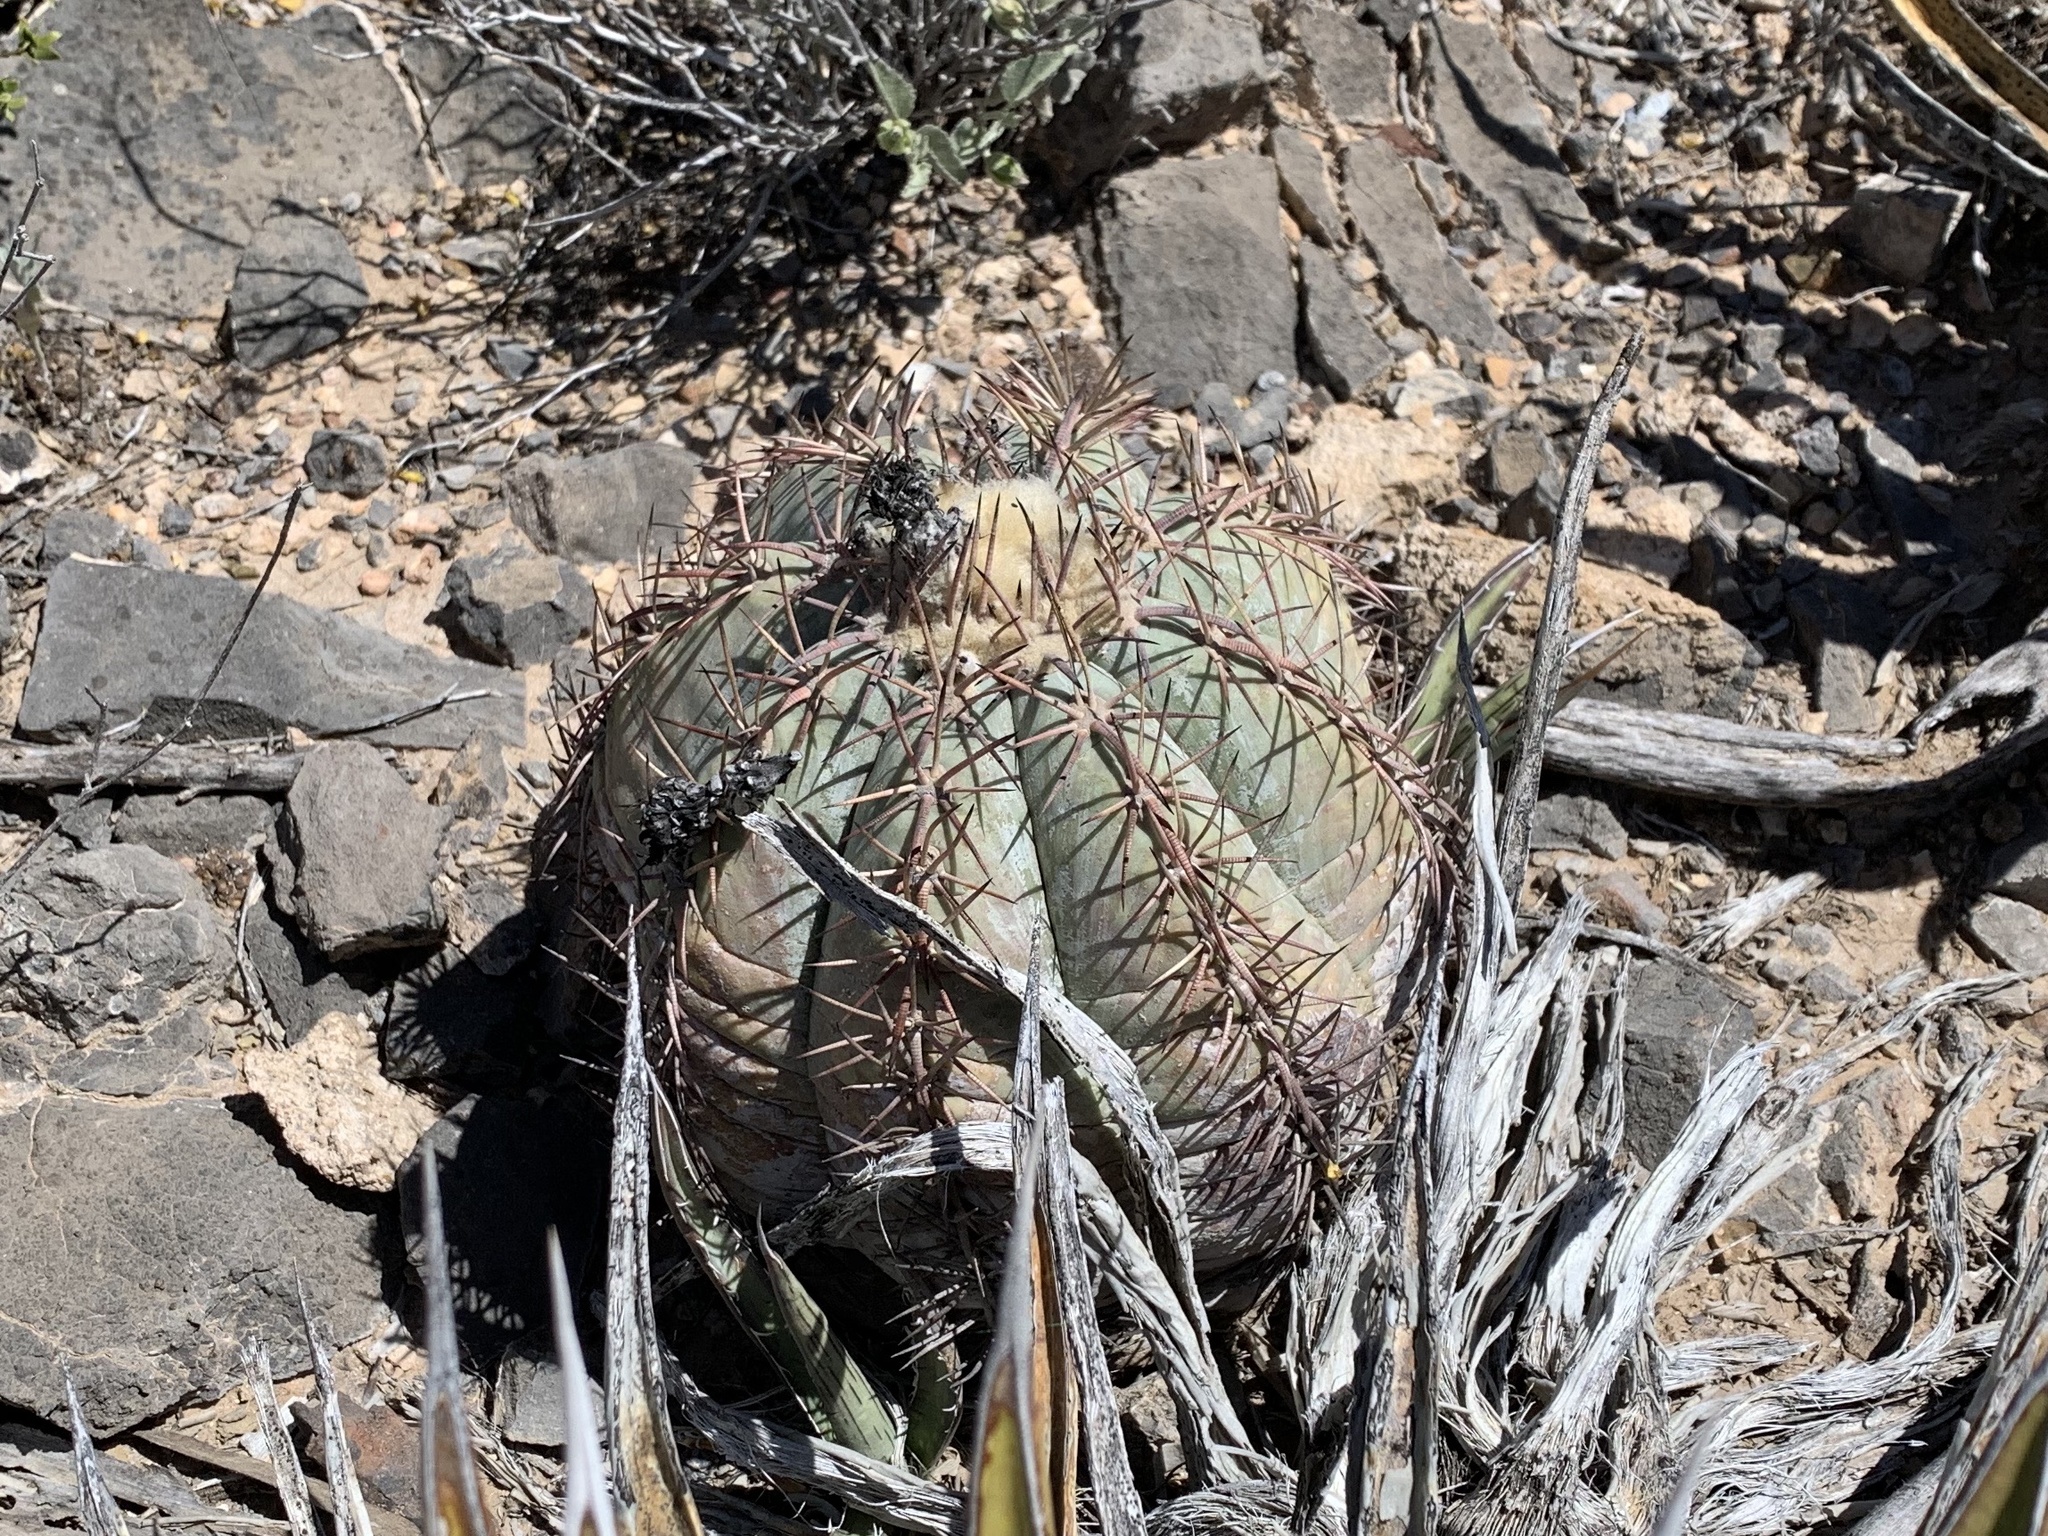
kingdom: Plantae
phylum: Tracheophyta
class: Magnoliopsida
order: Caryophyllales
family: Cactaceae
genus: Echinocactus
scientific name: Echinocactus horizonthalonius
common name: Devilshead
